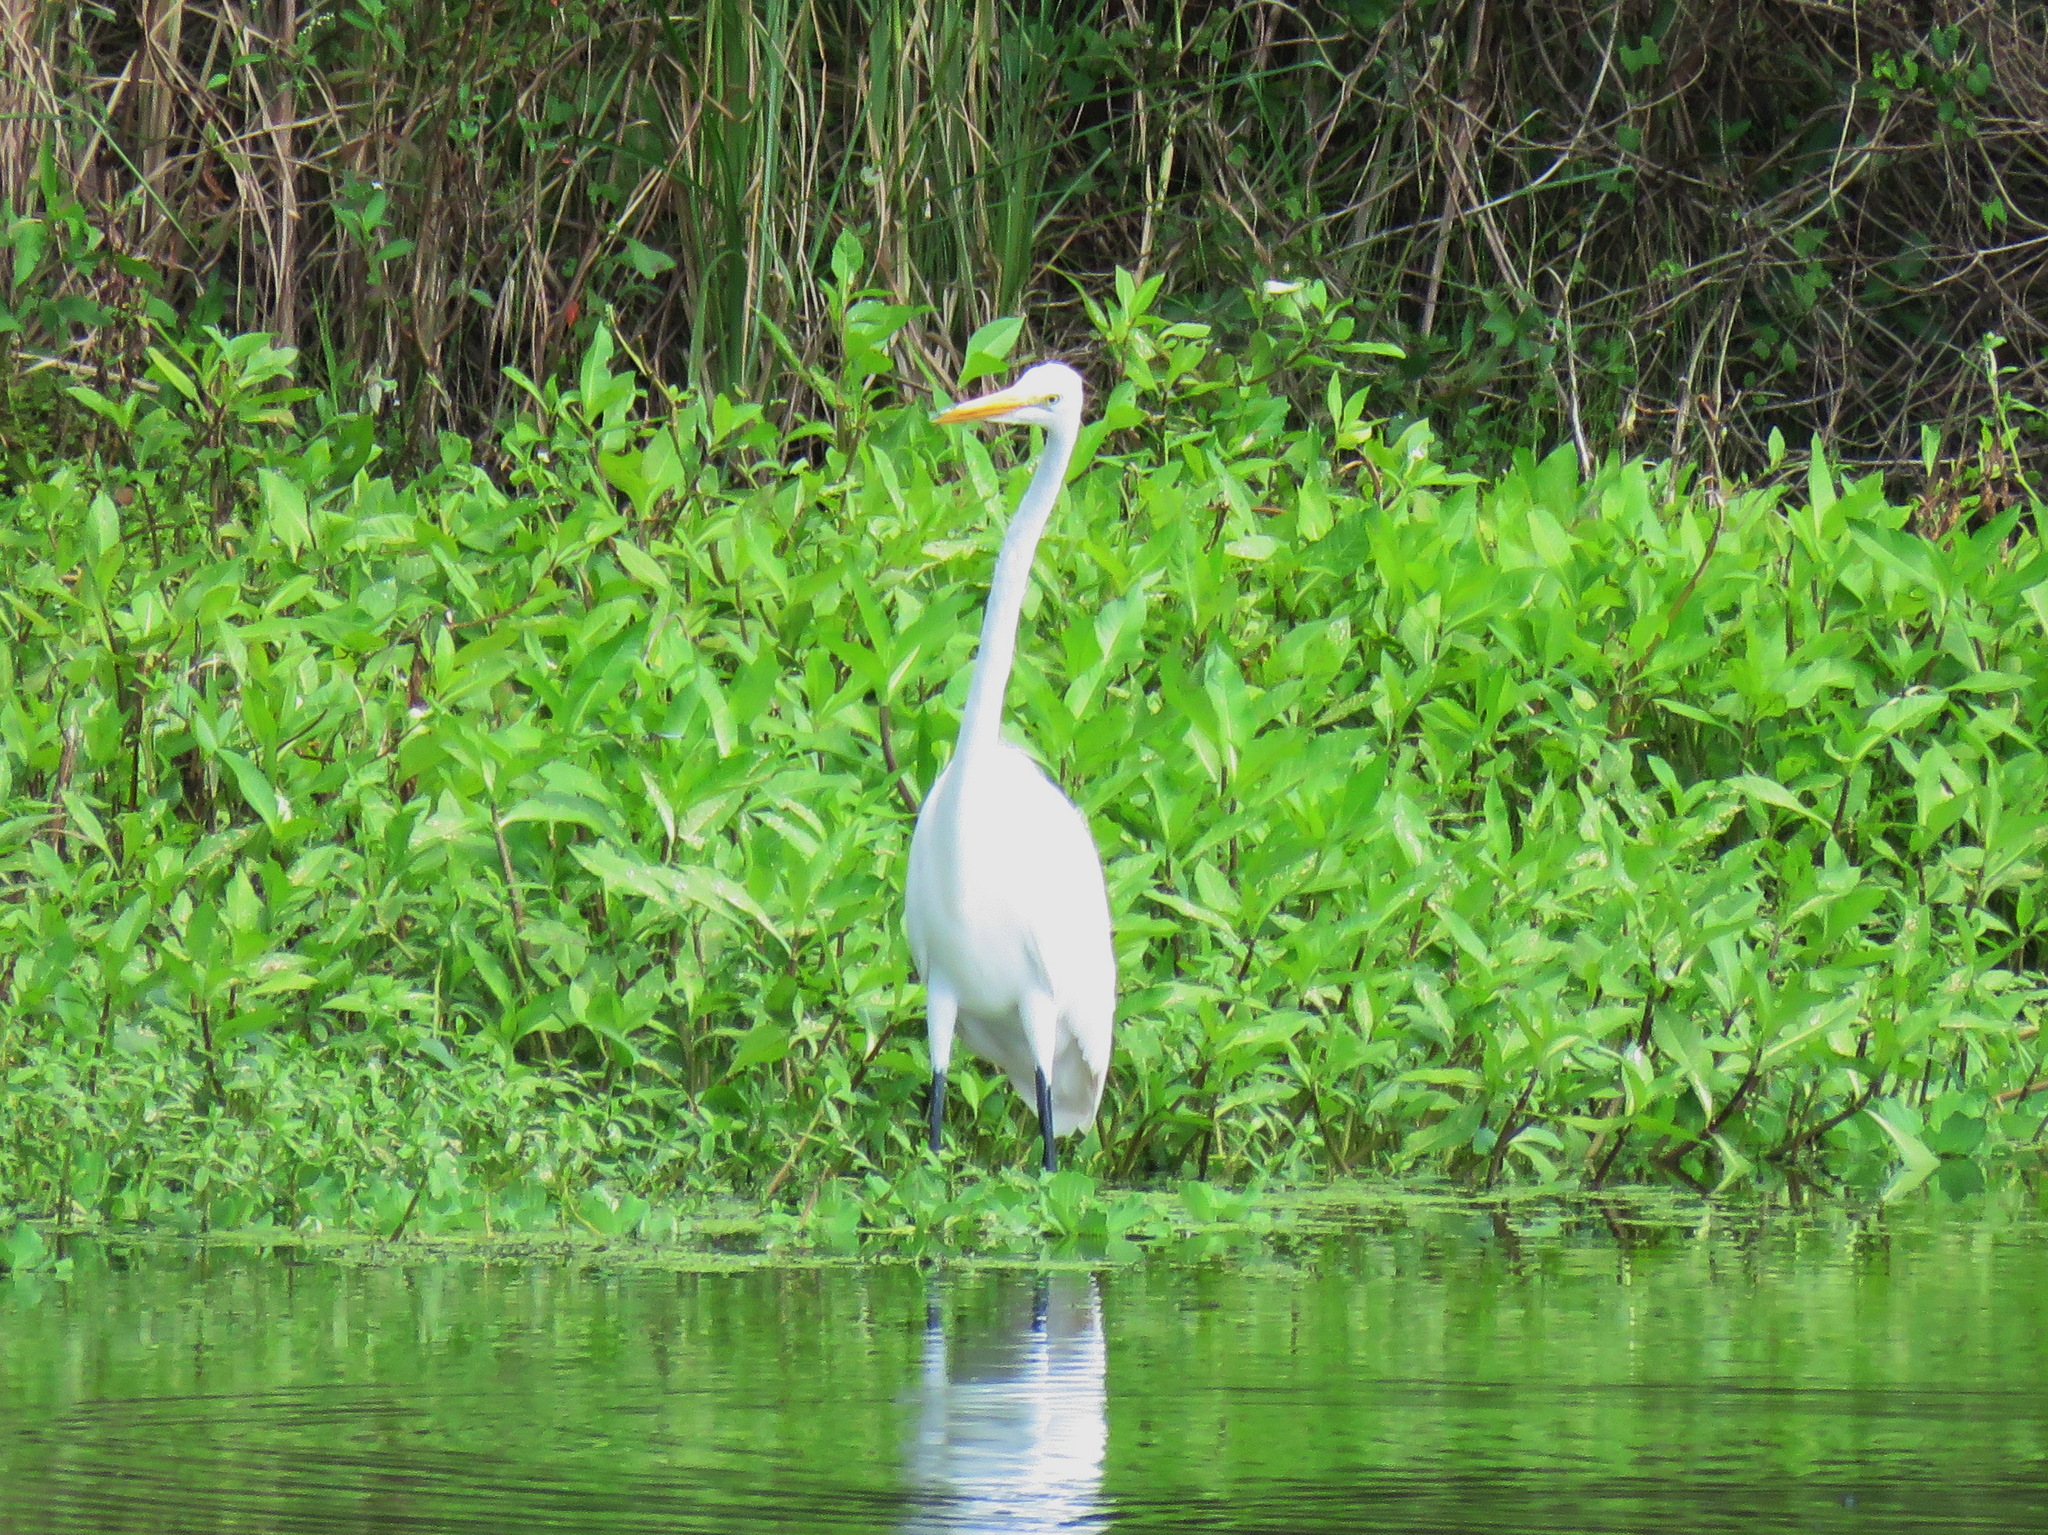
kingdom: Animalia
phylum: Chordata
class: Aves
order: Pelecaniformes
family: Ardeidae
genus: Ardea
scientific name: Ardea alba
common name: Great egret
